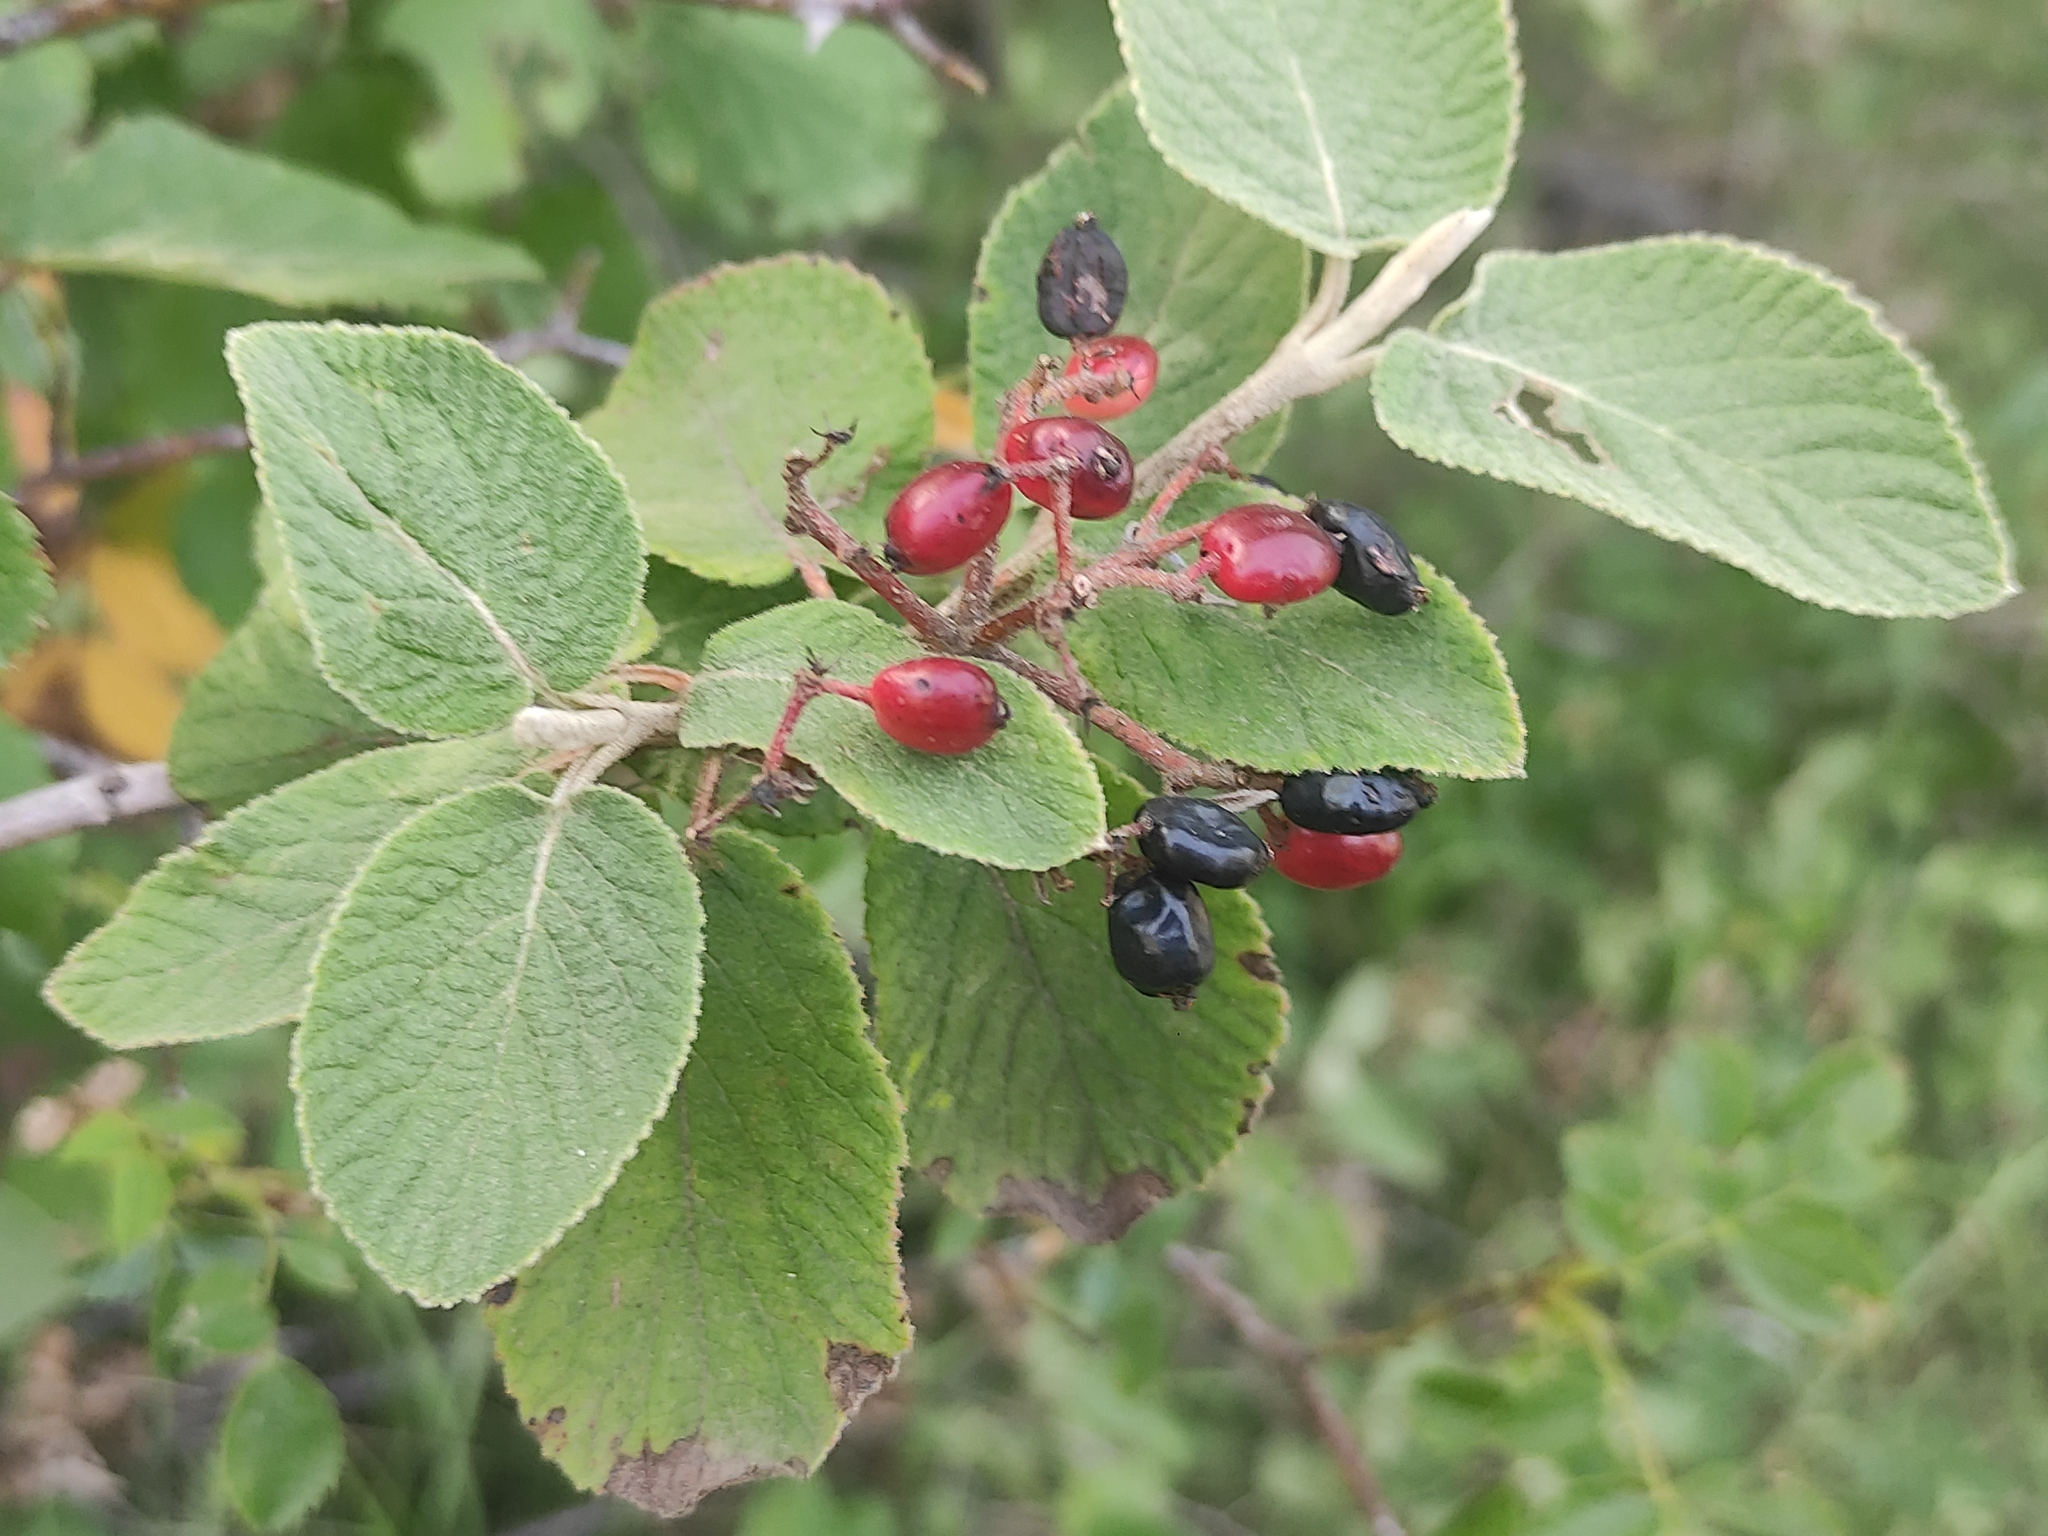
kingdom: Plantae
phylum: Tracheophyta
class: Magnoliopsida
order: Dipsacales
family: Viburnaceae
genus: Viburnum
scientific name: Viburnum lantana
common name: Wayfaring tree
